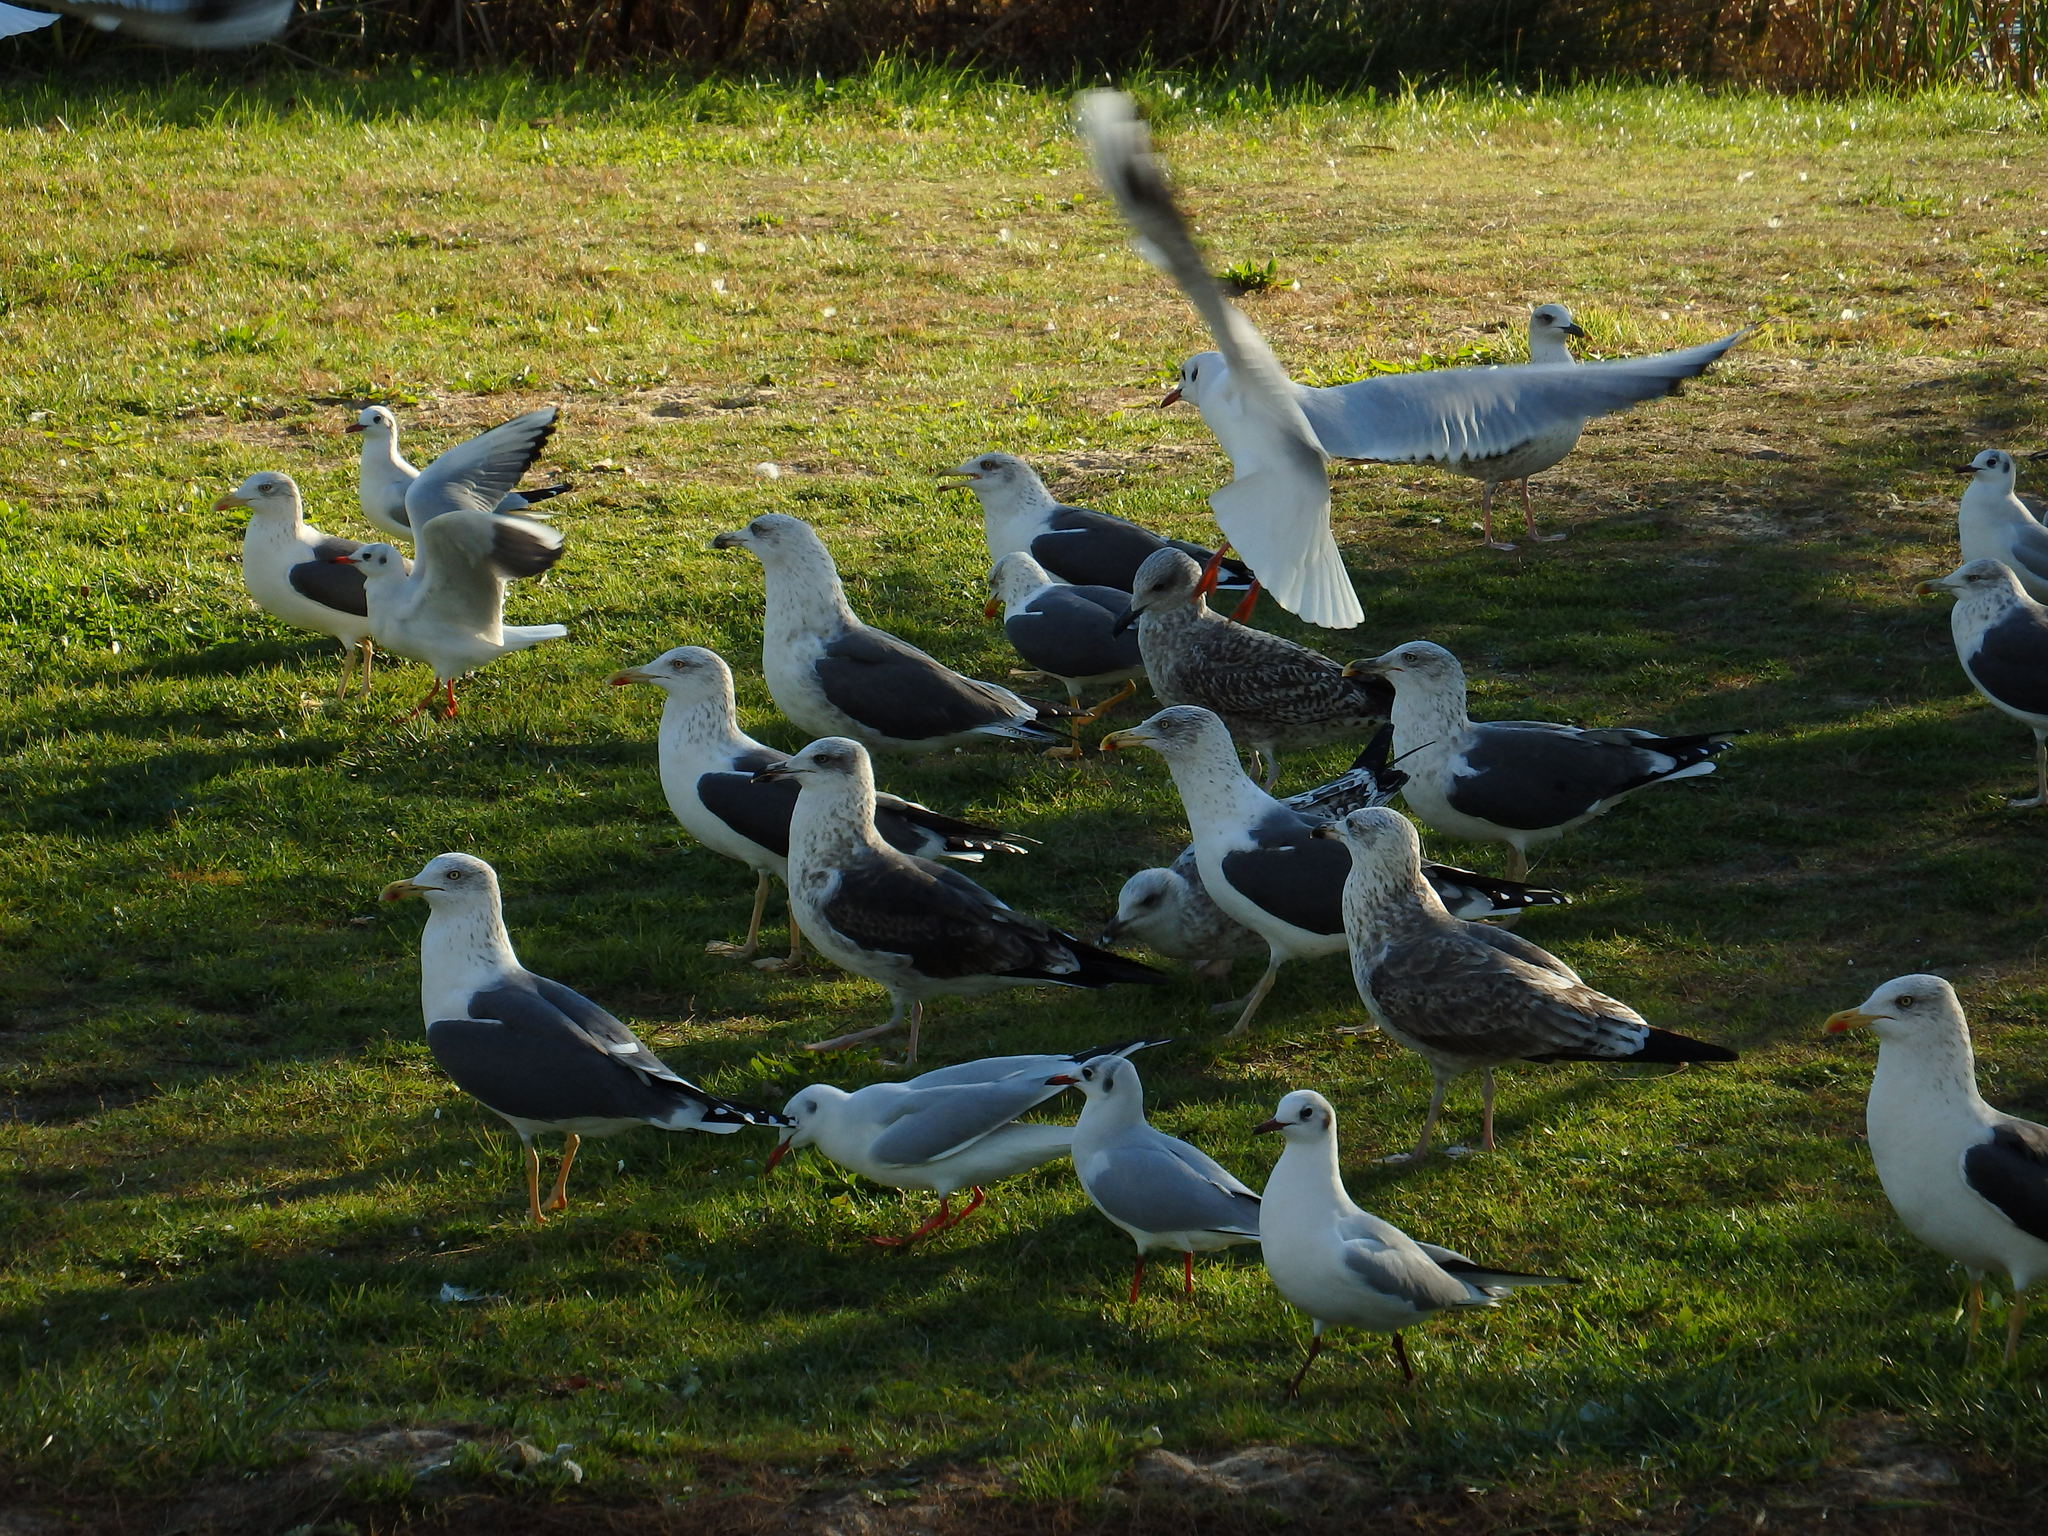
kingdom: Animalia
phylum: Chordata
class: Aves
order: Charadriiformes
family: Laridae
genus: Larus
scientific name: Larus fuscus
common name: Lesser black-backed gull
